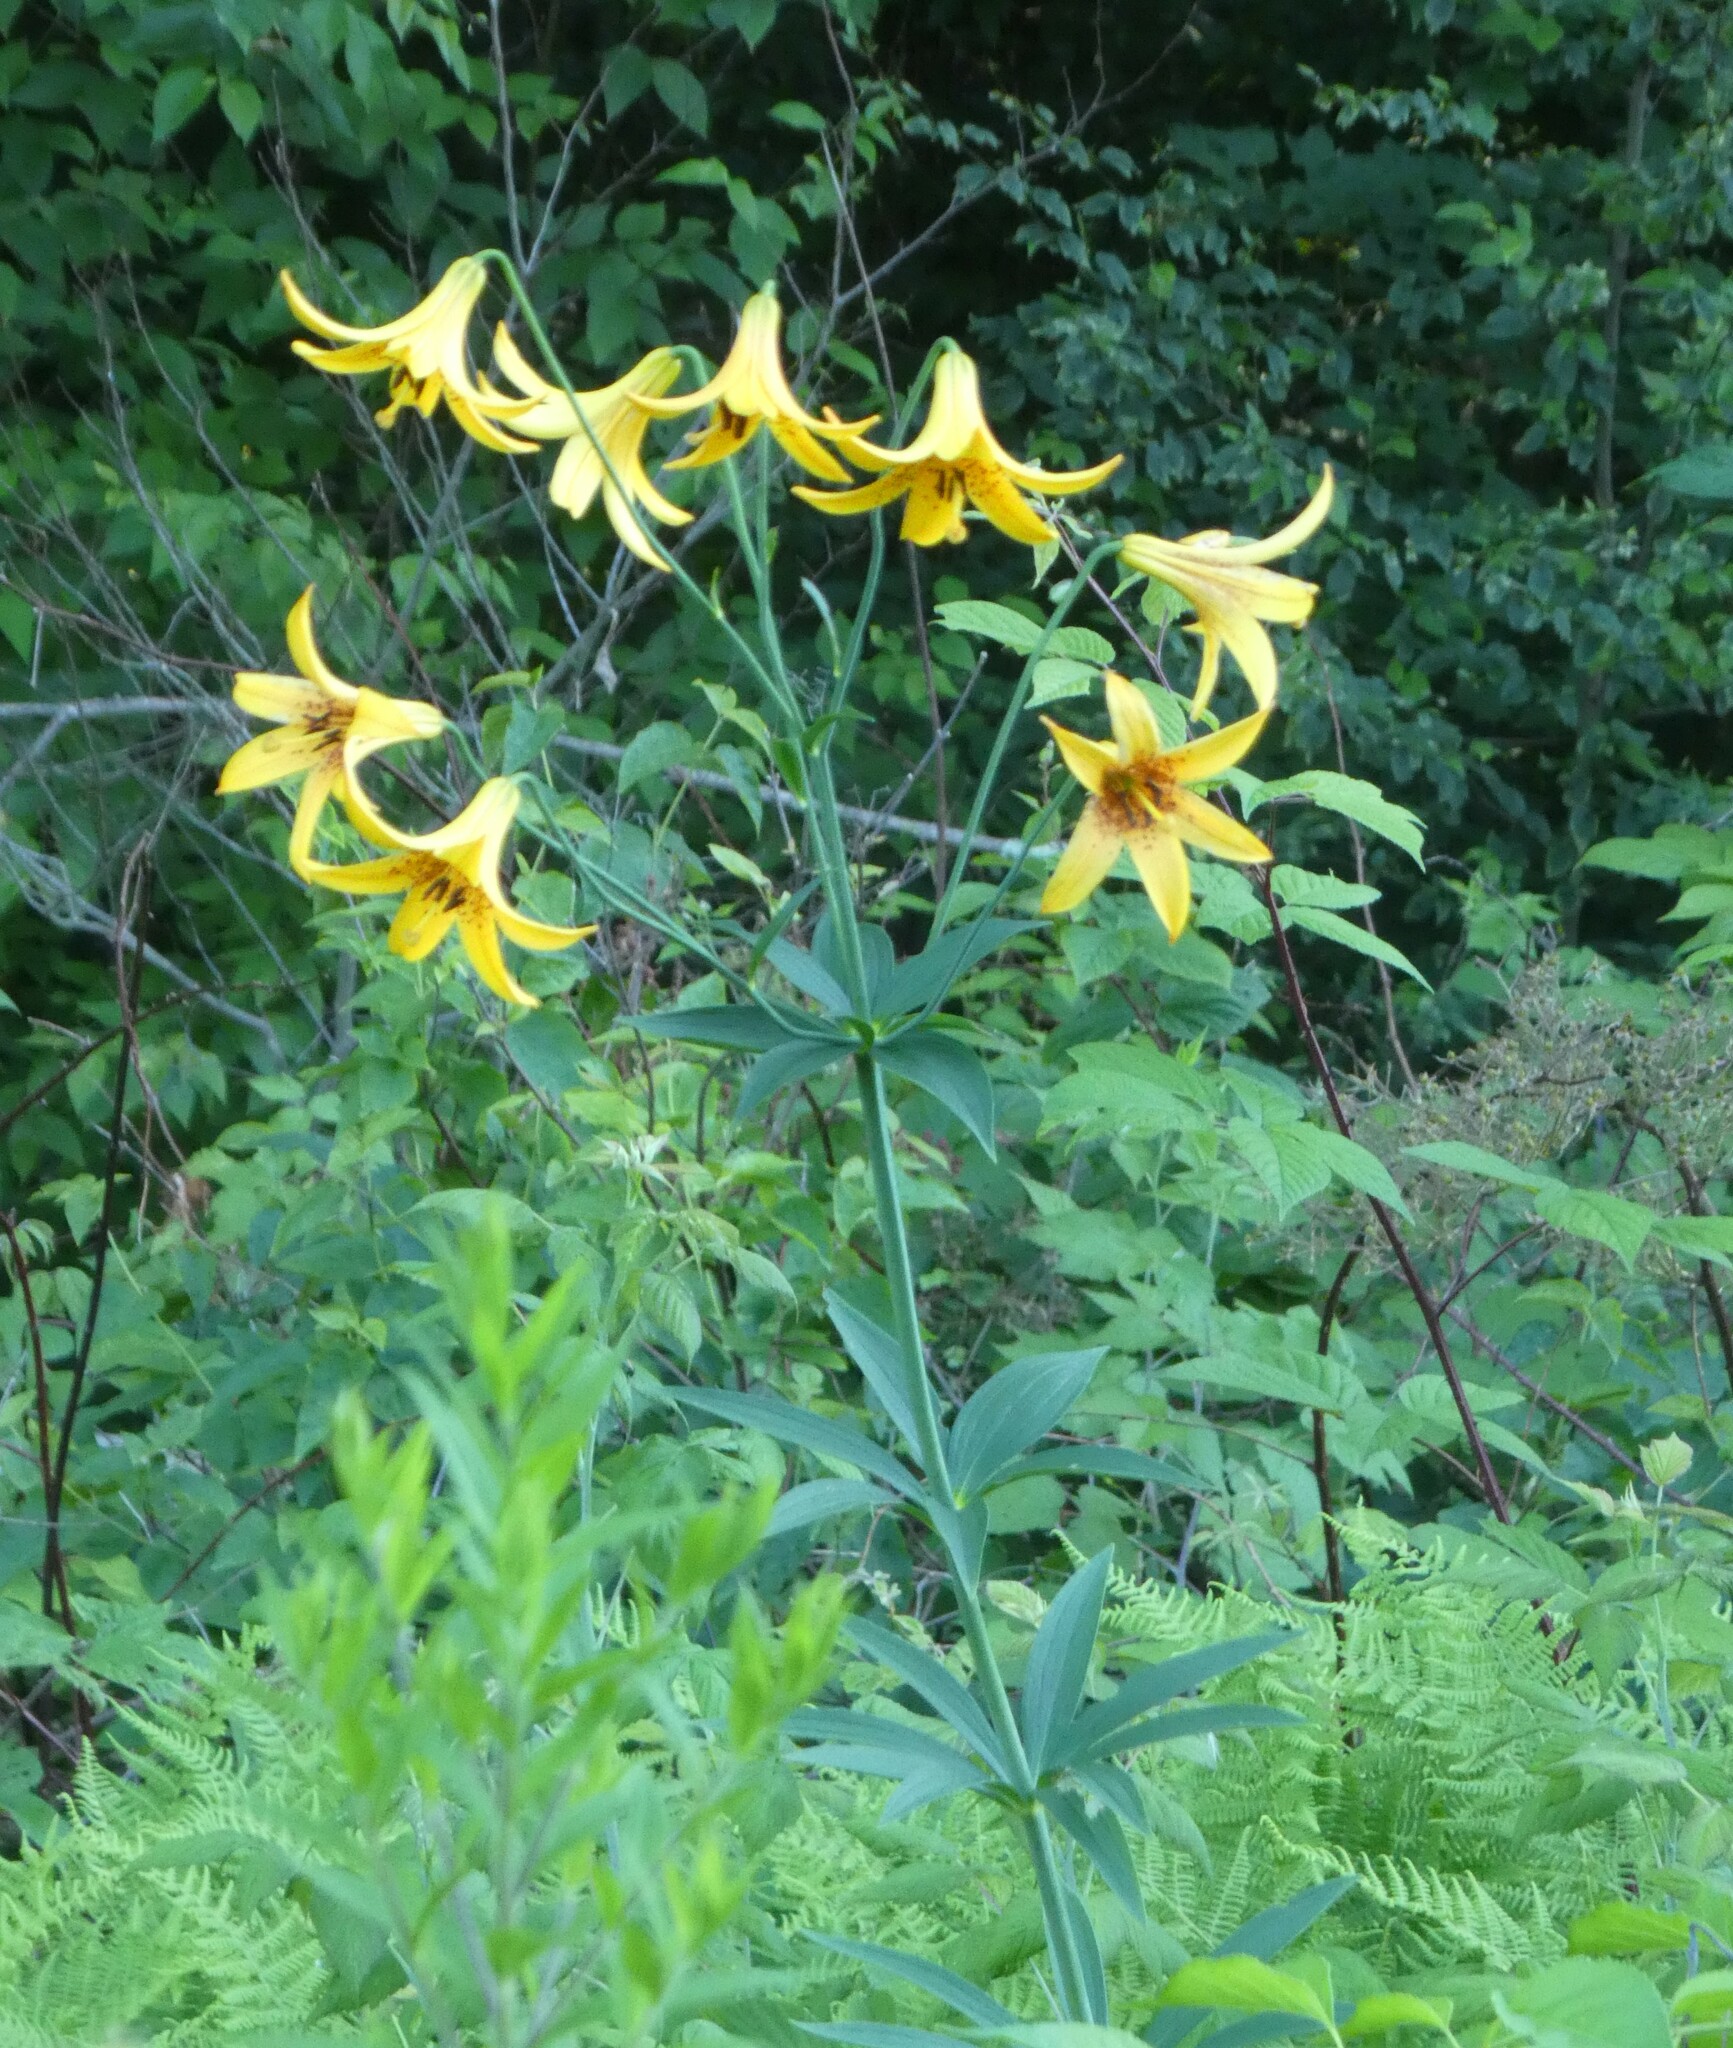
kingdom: Plantae
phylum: Tracheophyta
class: Liliopsida
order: Liliales
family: Liliaceae
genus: Lilium
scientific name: Lilium canadense
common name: Canada lily
